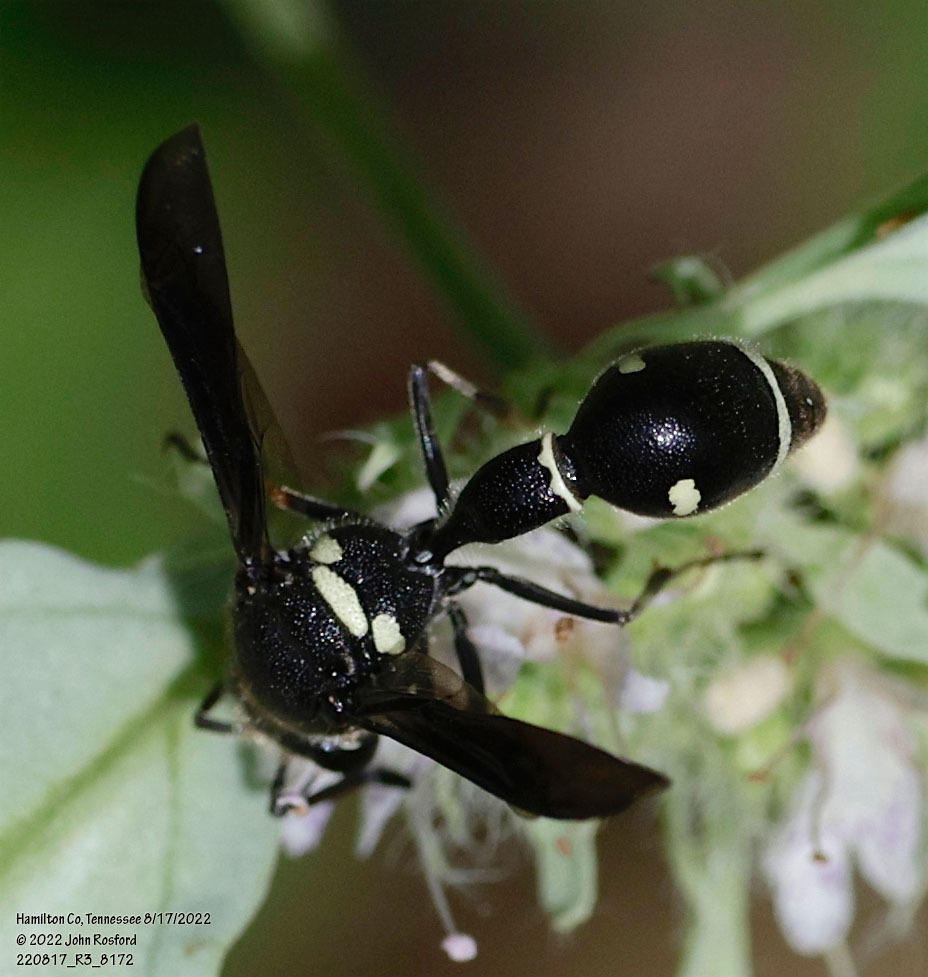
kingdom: Animalia
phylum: Arthropoda
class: Insecta
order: Hymenoptera
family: Vespidae
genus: Eumenes
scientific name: Eumenes fraternus
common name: Fraternal potter wasp
